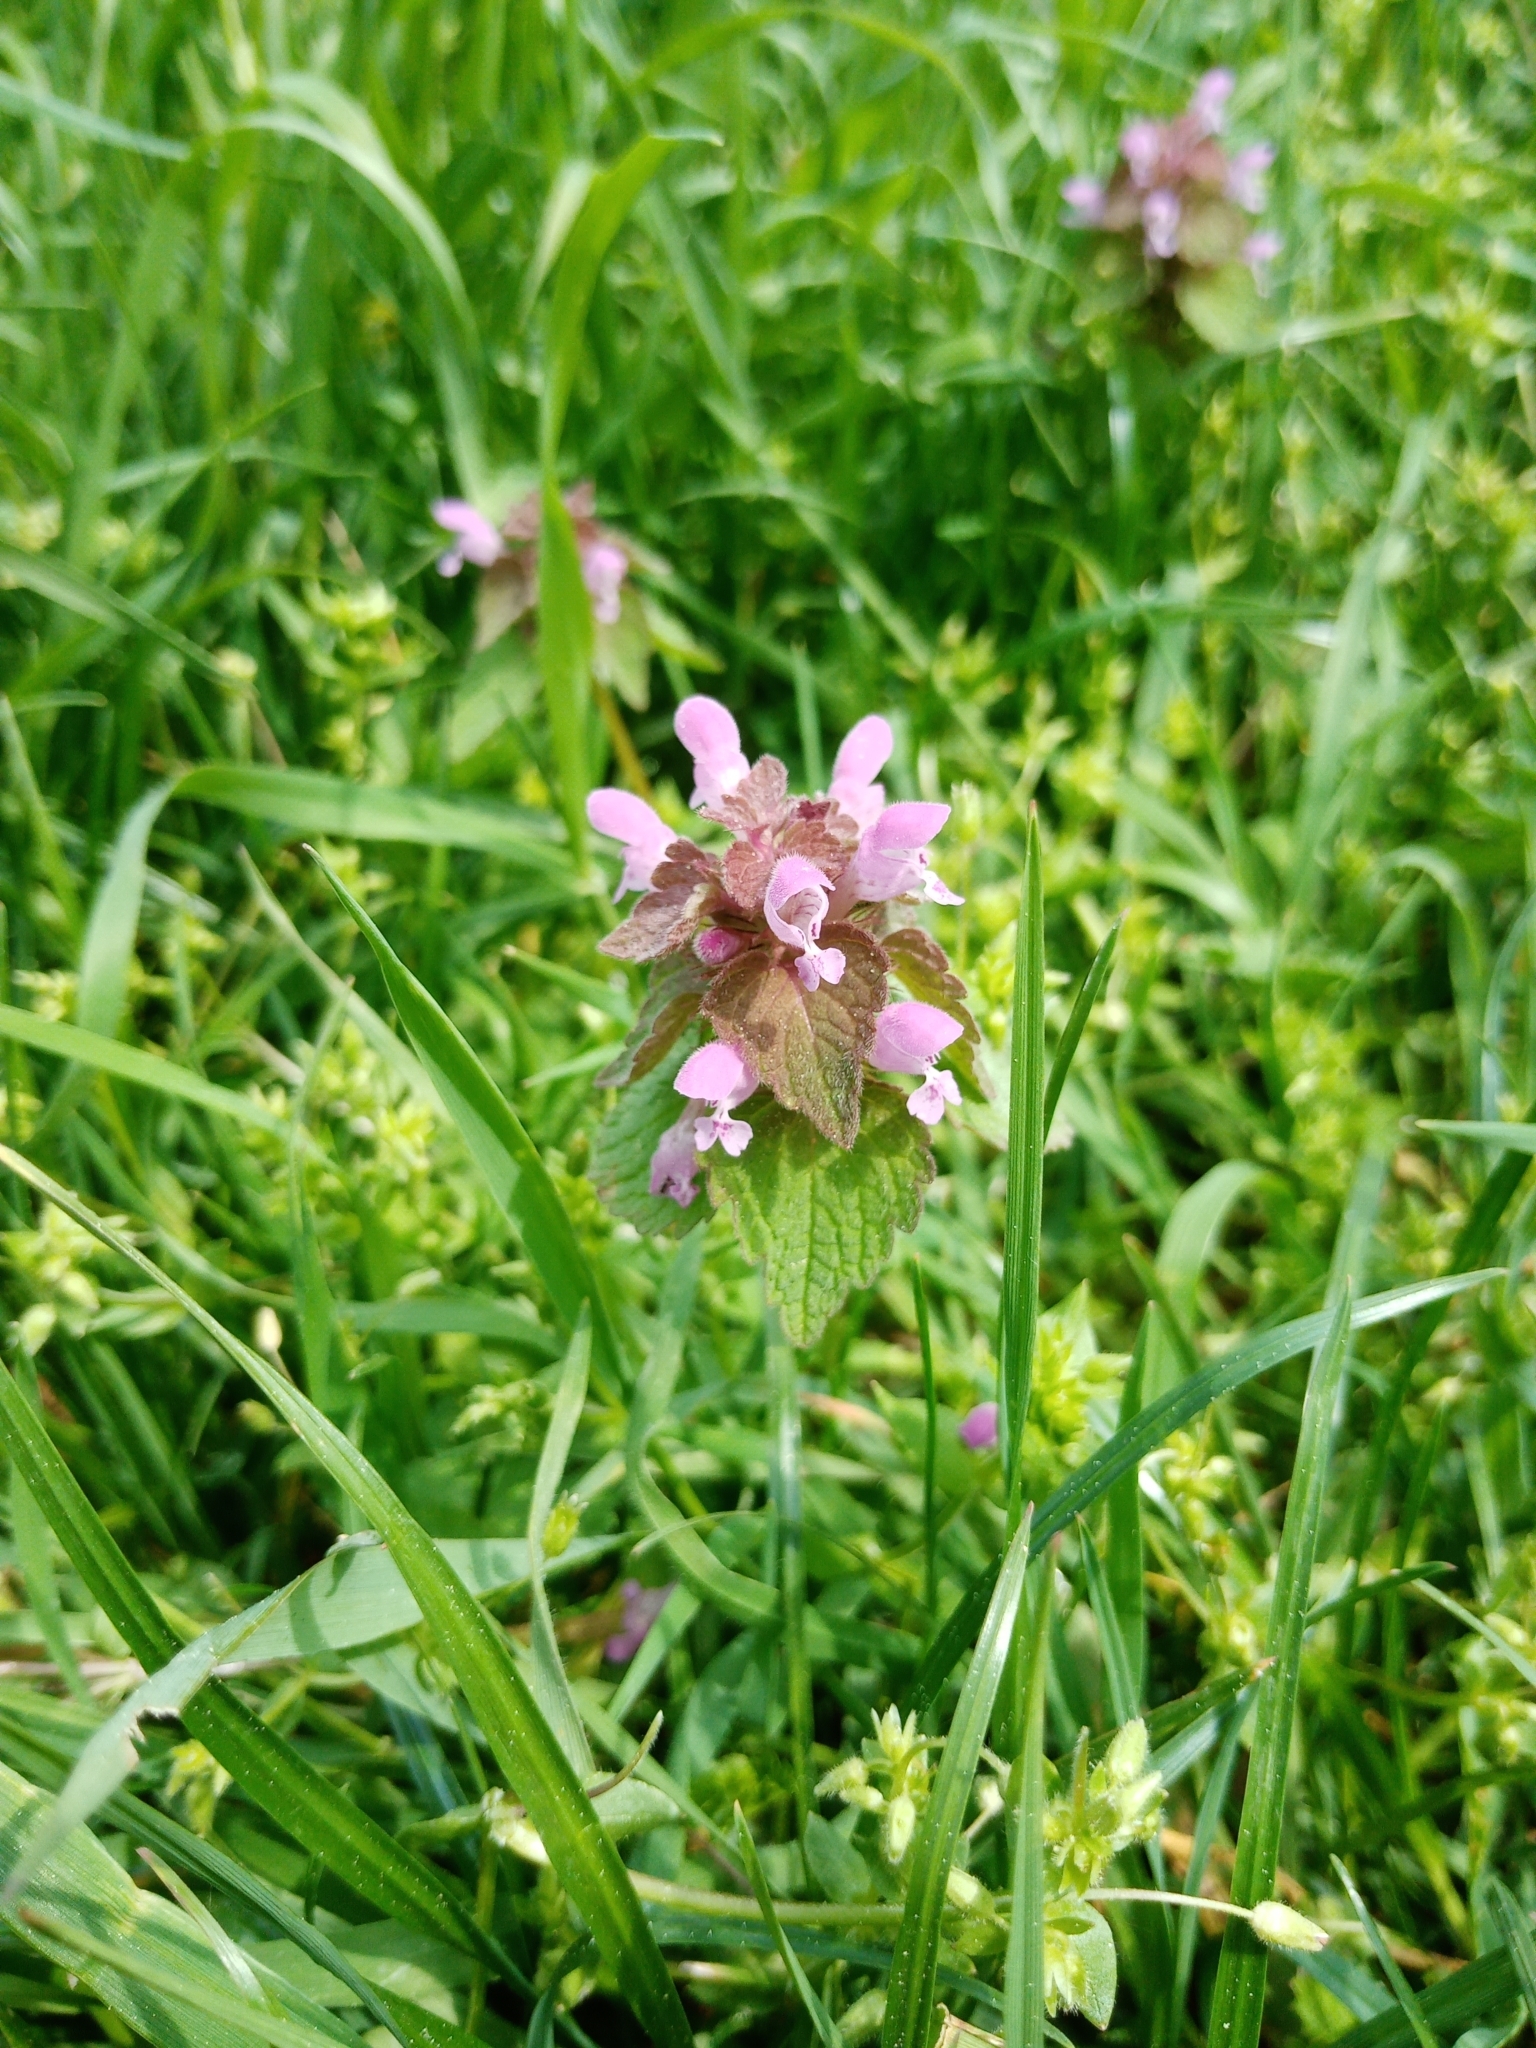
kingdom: Plantae
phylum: Tracheophyta
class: Magnoliopsida
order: Lamiales
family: Lamiaceae
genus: Lamium
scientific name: Lamium purpureum
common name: Red dead-nettle
